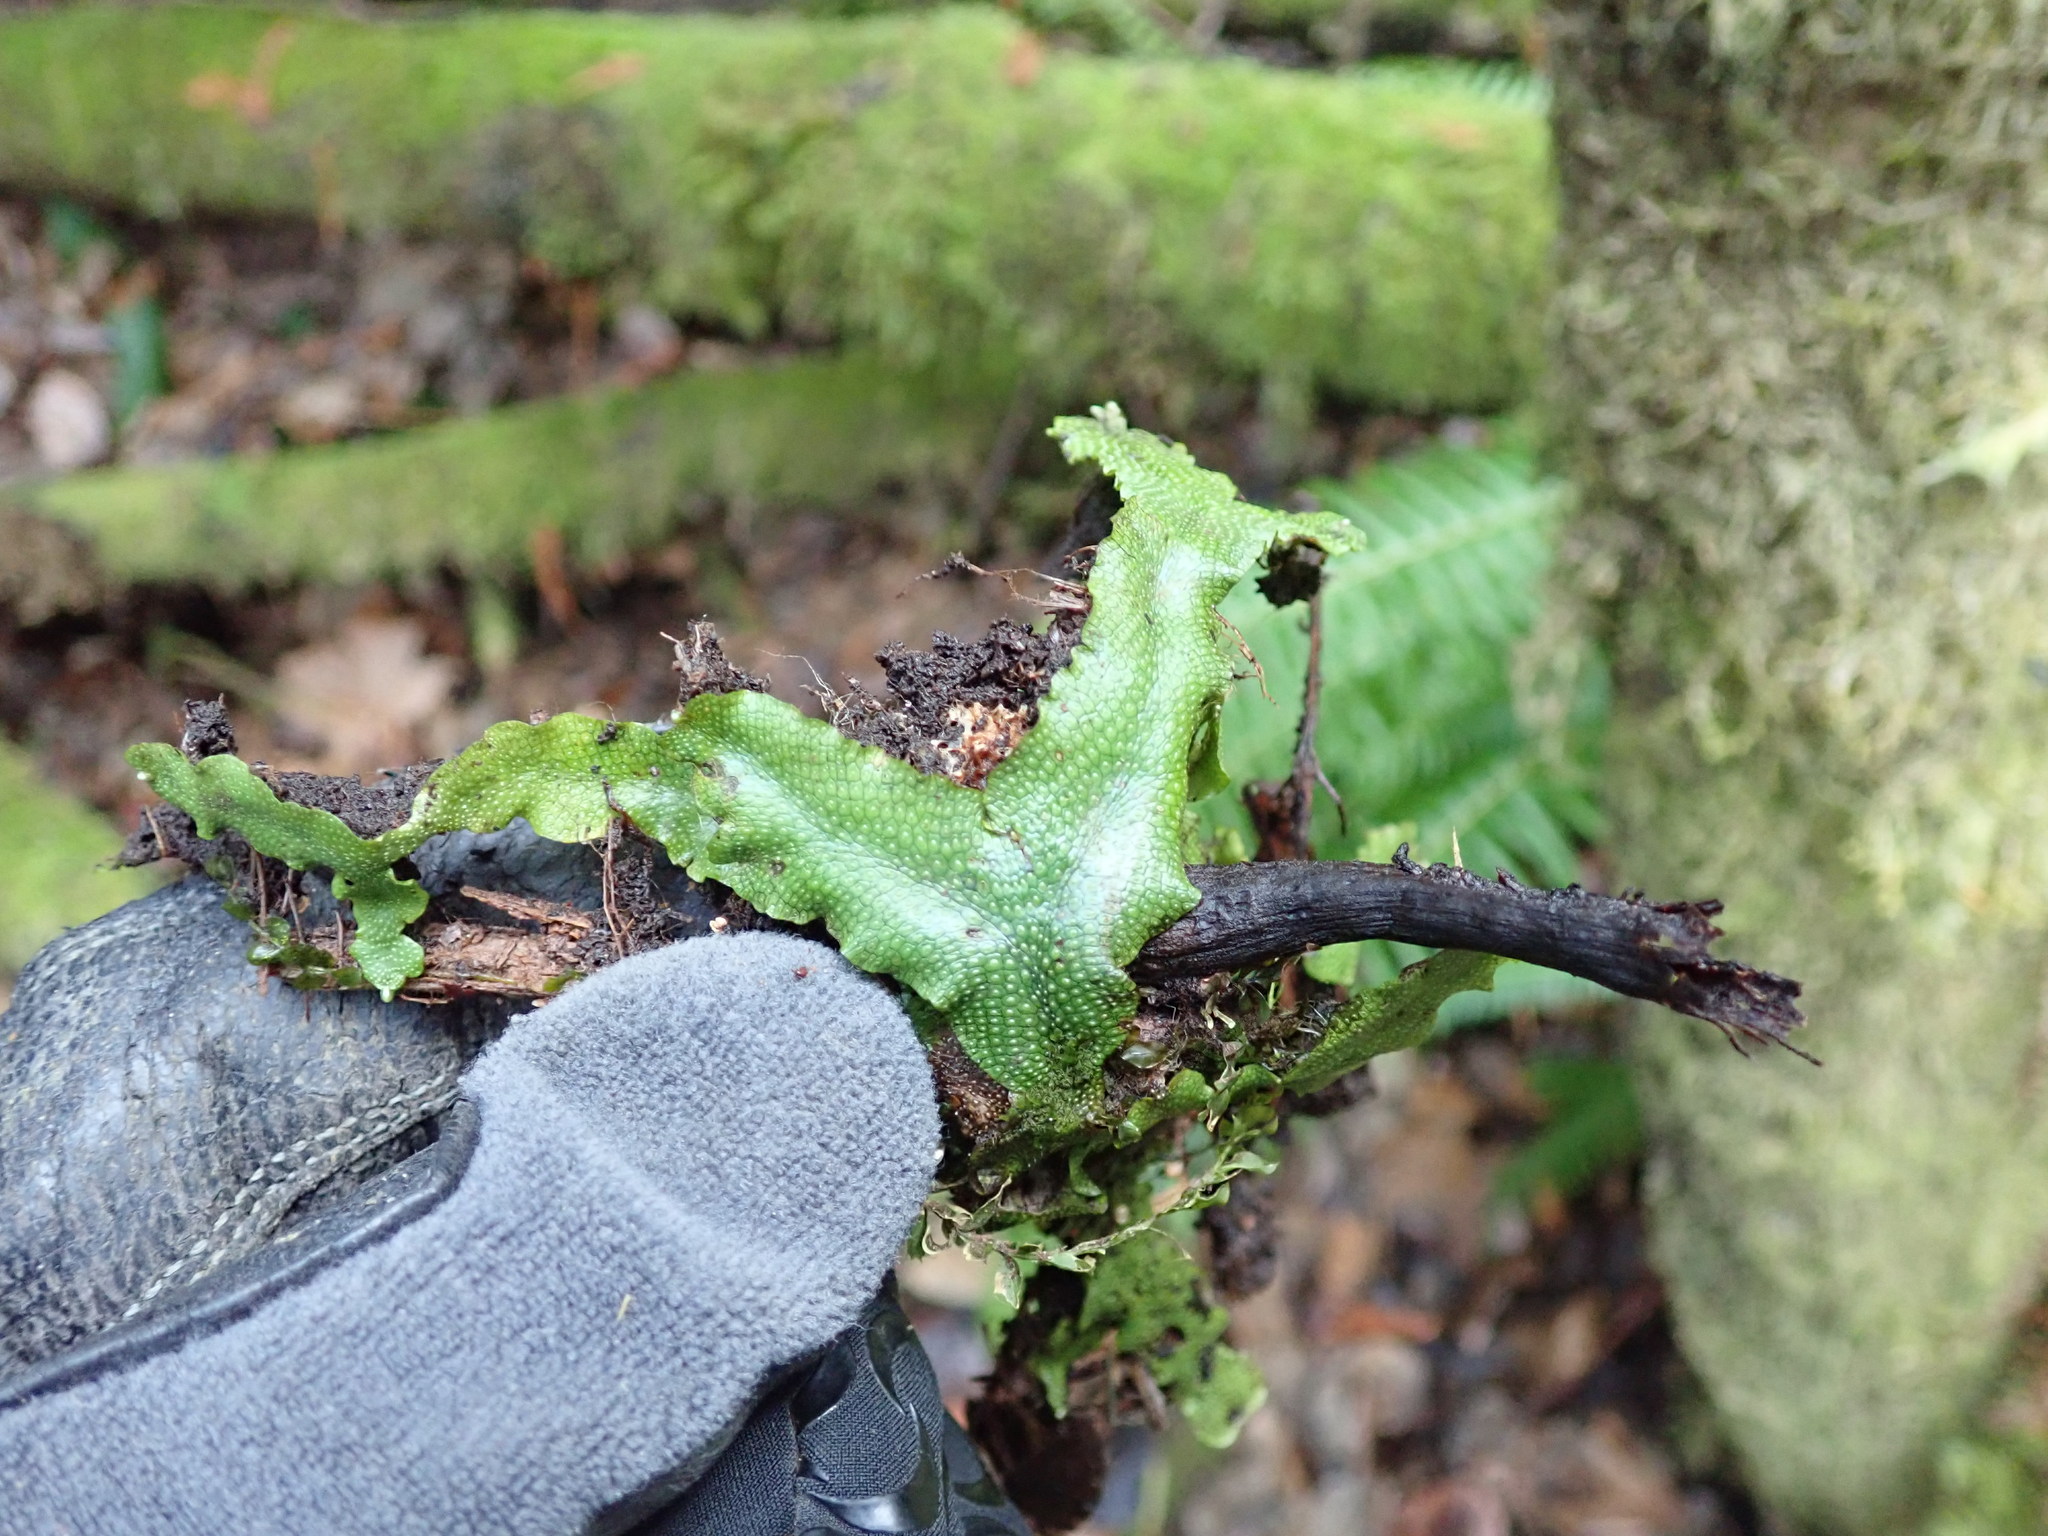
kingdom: Plantae
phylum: Marchantiophyta
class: Marchantiopsida
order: Marchantiales
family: Conocephalaceae
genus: Conocephalum
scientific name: Conocephalum conicum
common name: Great scented liverwort
